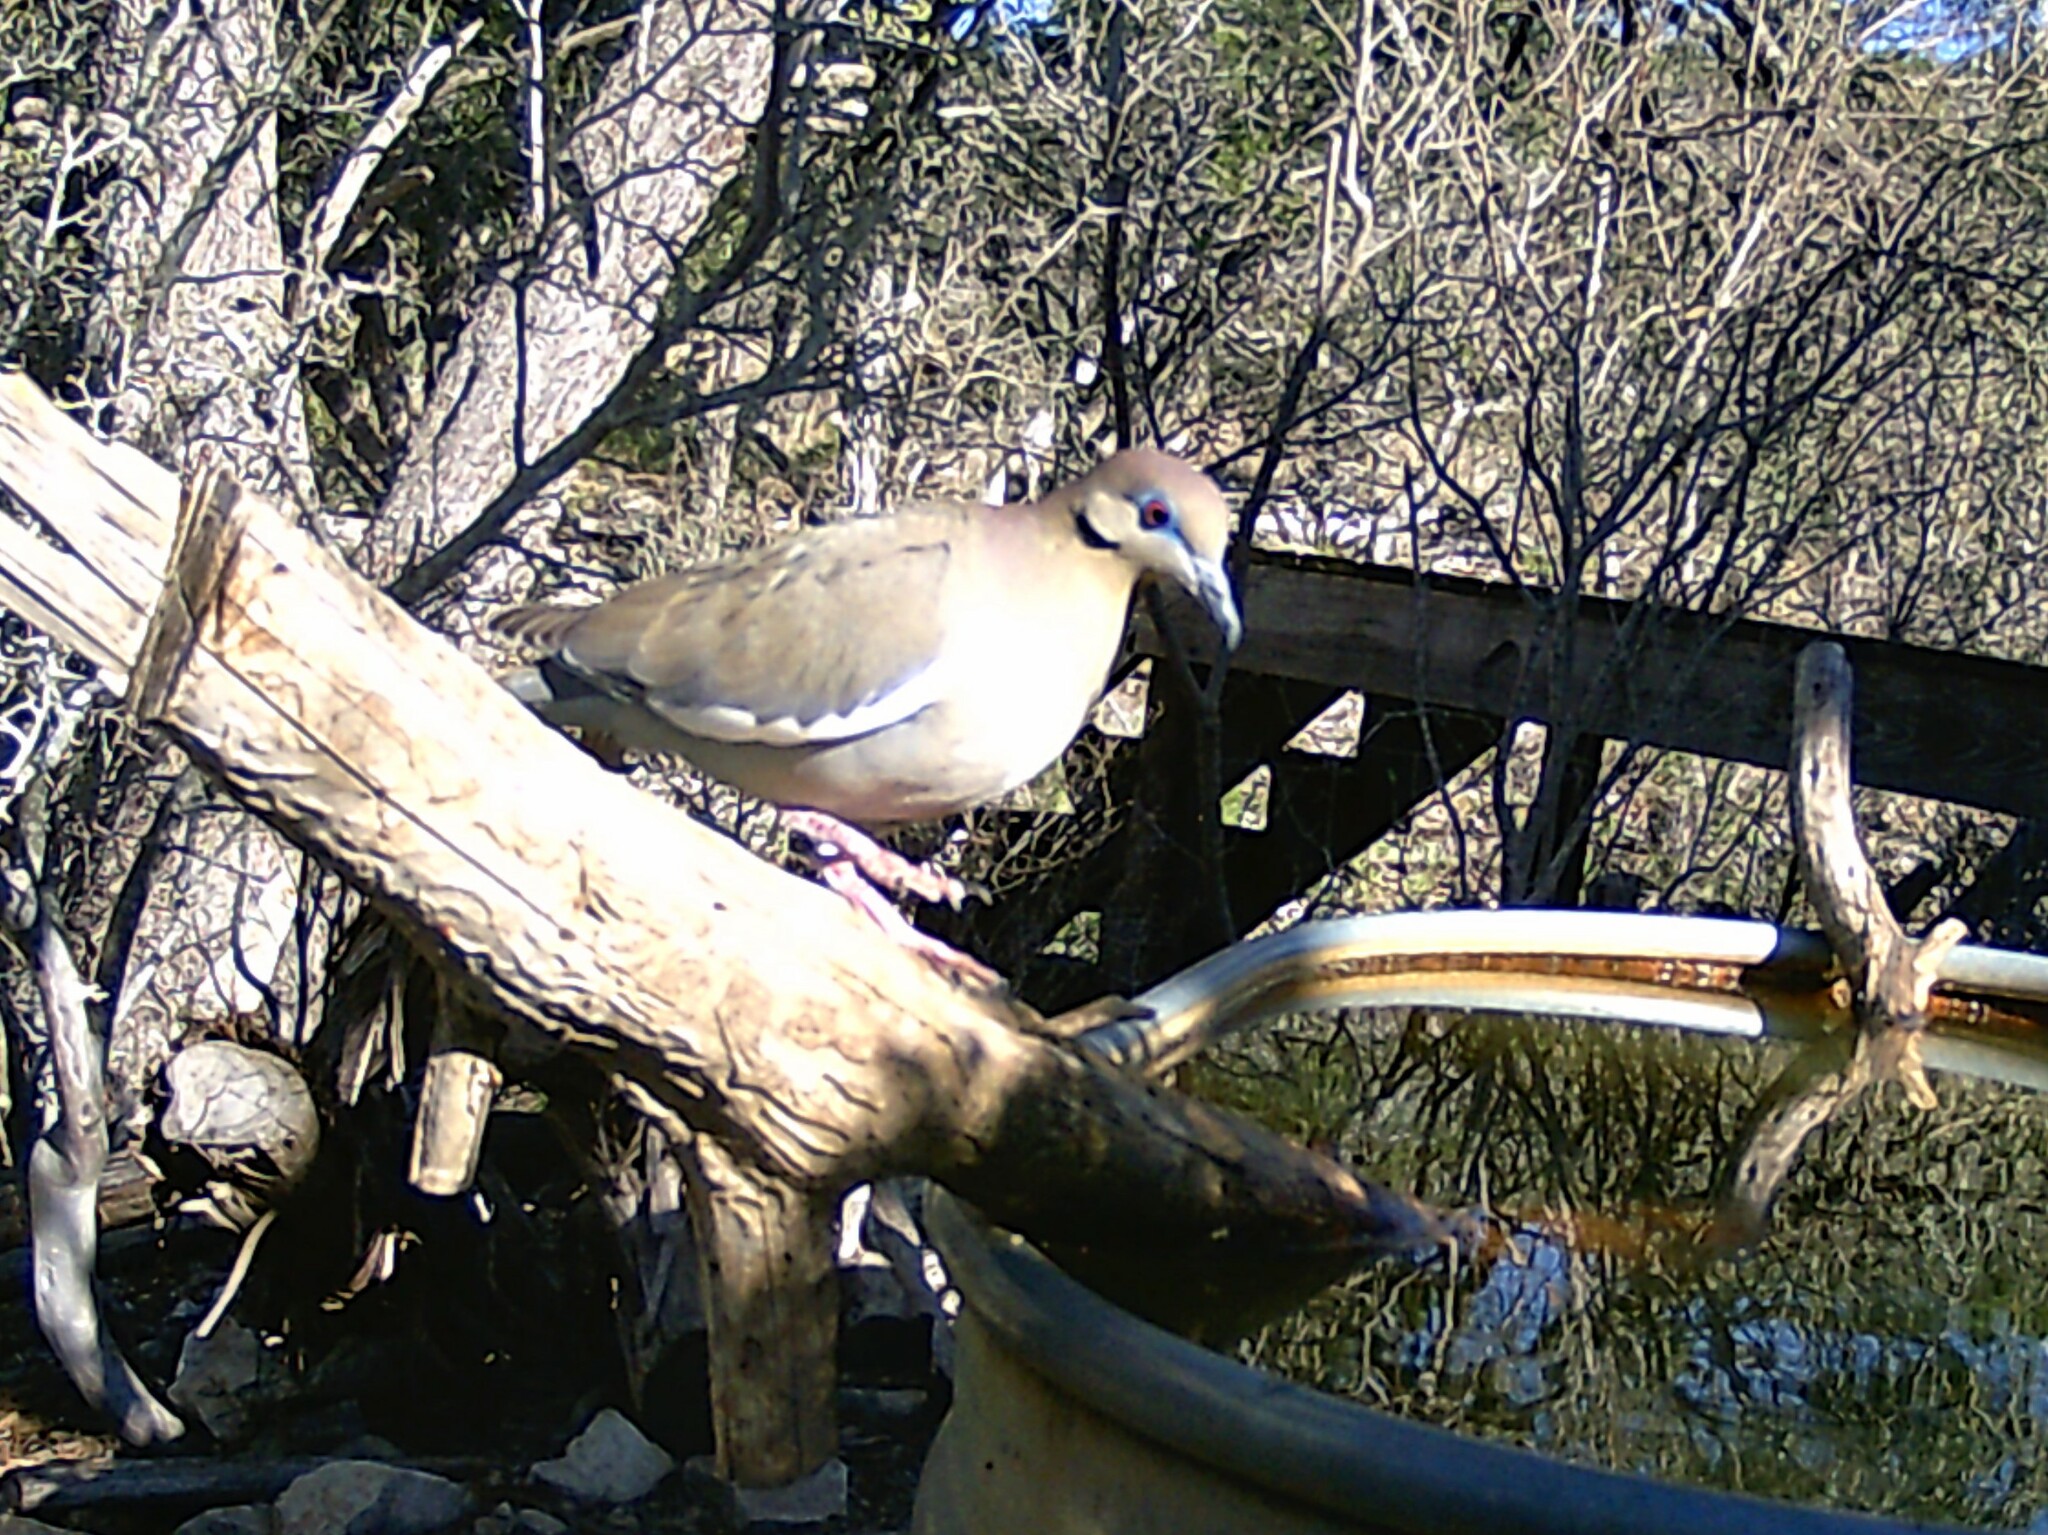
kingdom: Animalia
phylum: Chordata
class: Aves
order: Columbiformes
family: Columbidae
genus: Zenaida
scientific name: Zenaida asiatica
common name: White-winged dove
